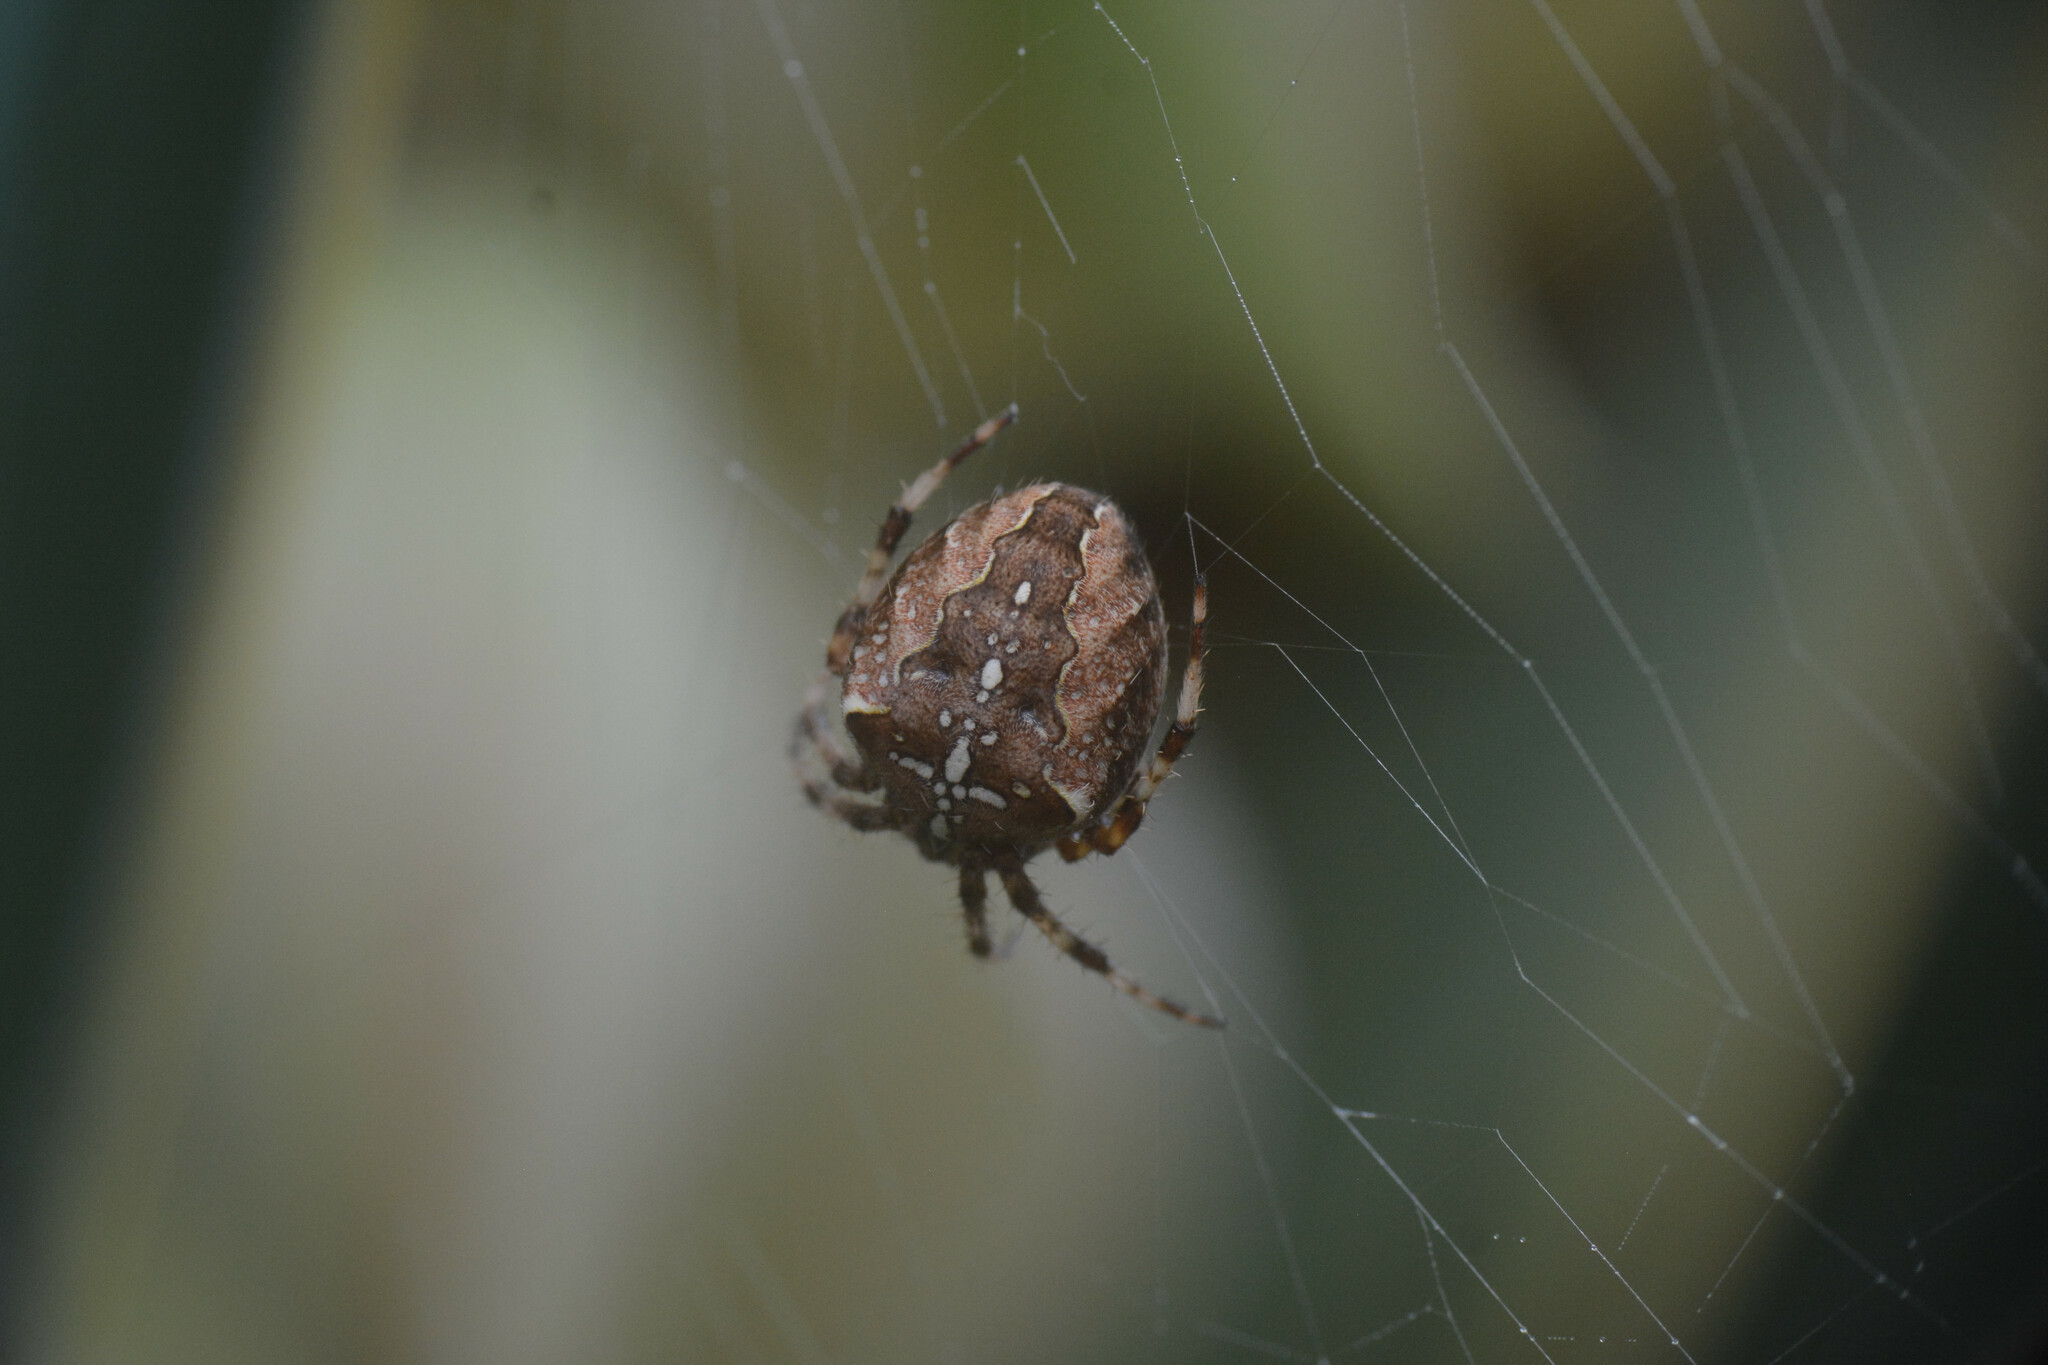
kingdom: Animalia
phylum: Arthropoda
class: Arachnida
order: Araneae
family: Araneidae
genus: Araneus
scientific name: Araneus diadematus
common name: Cross orbweaver
